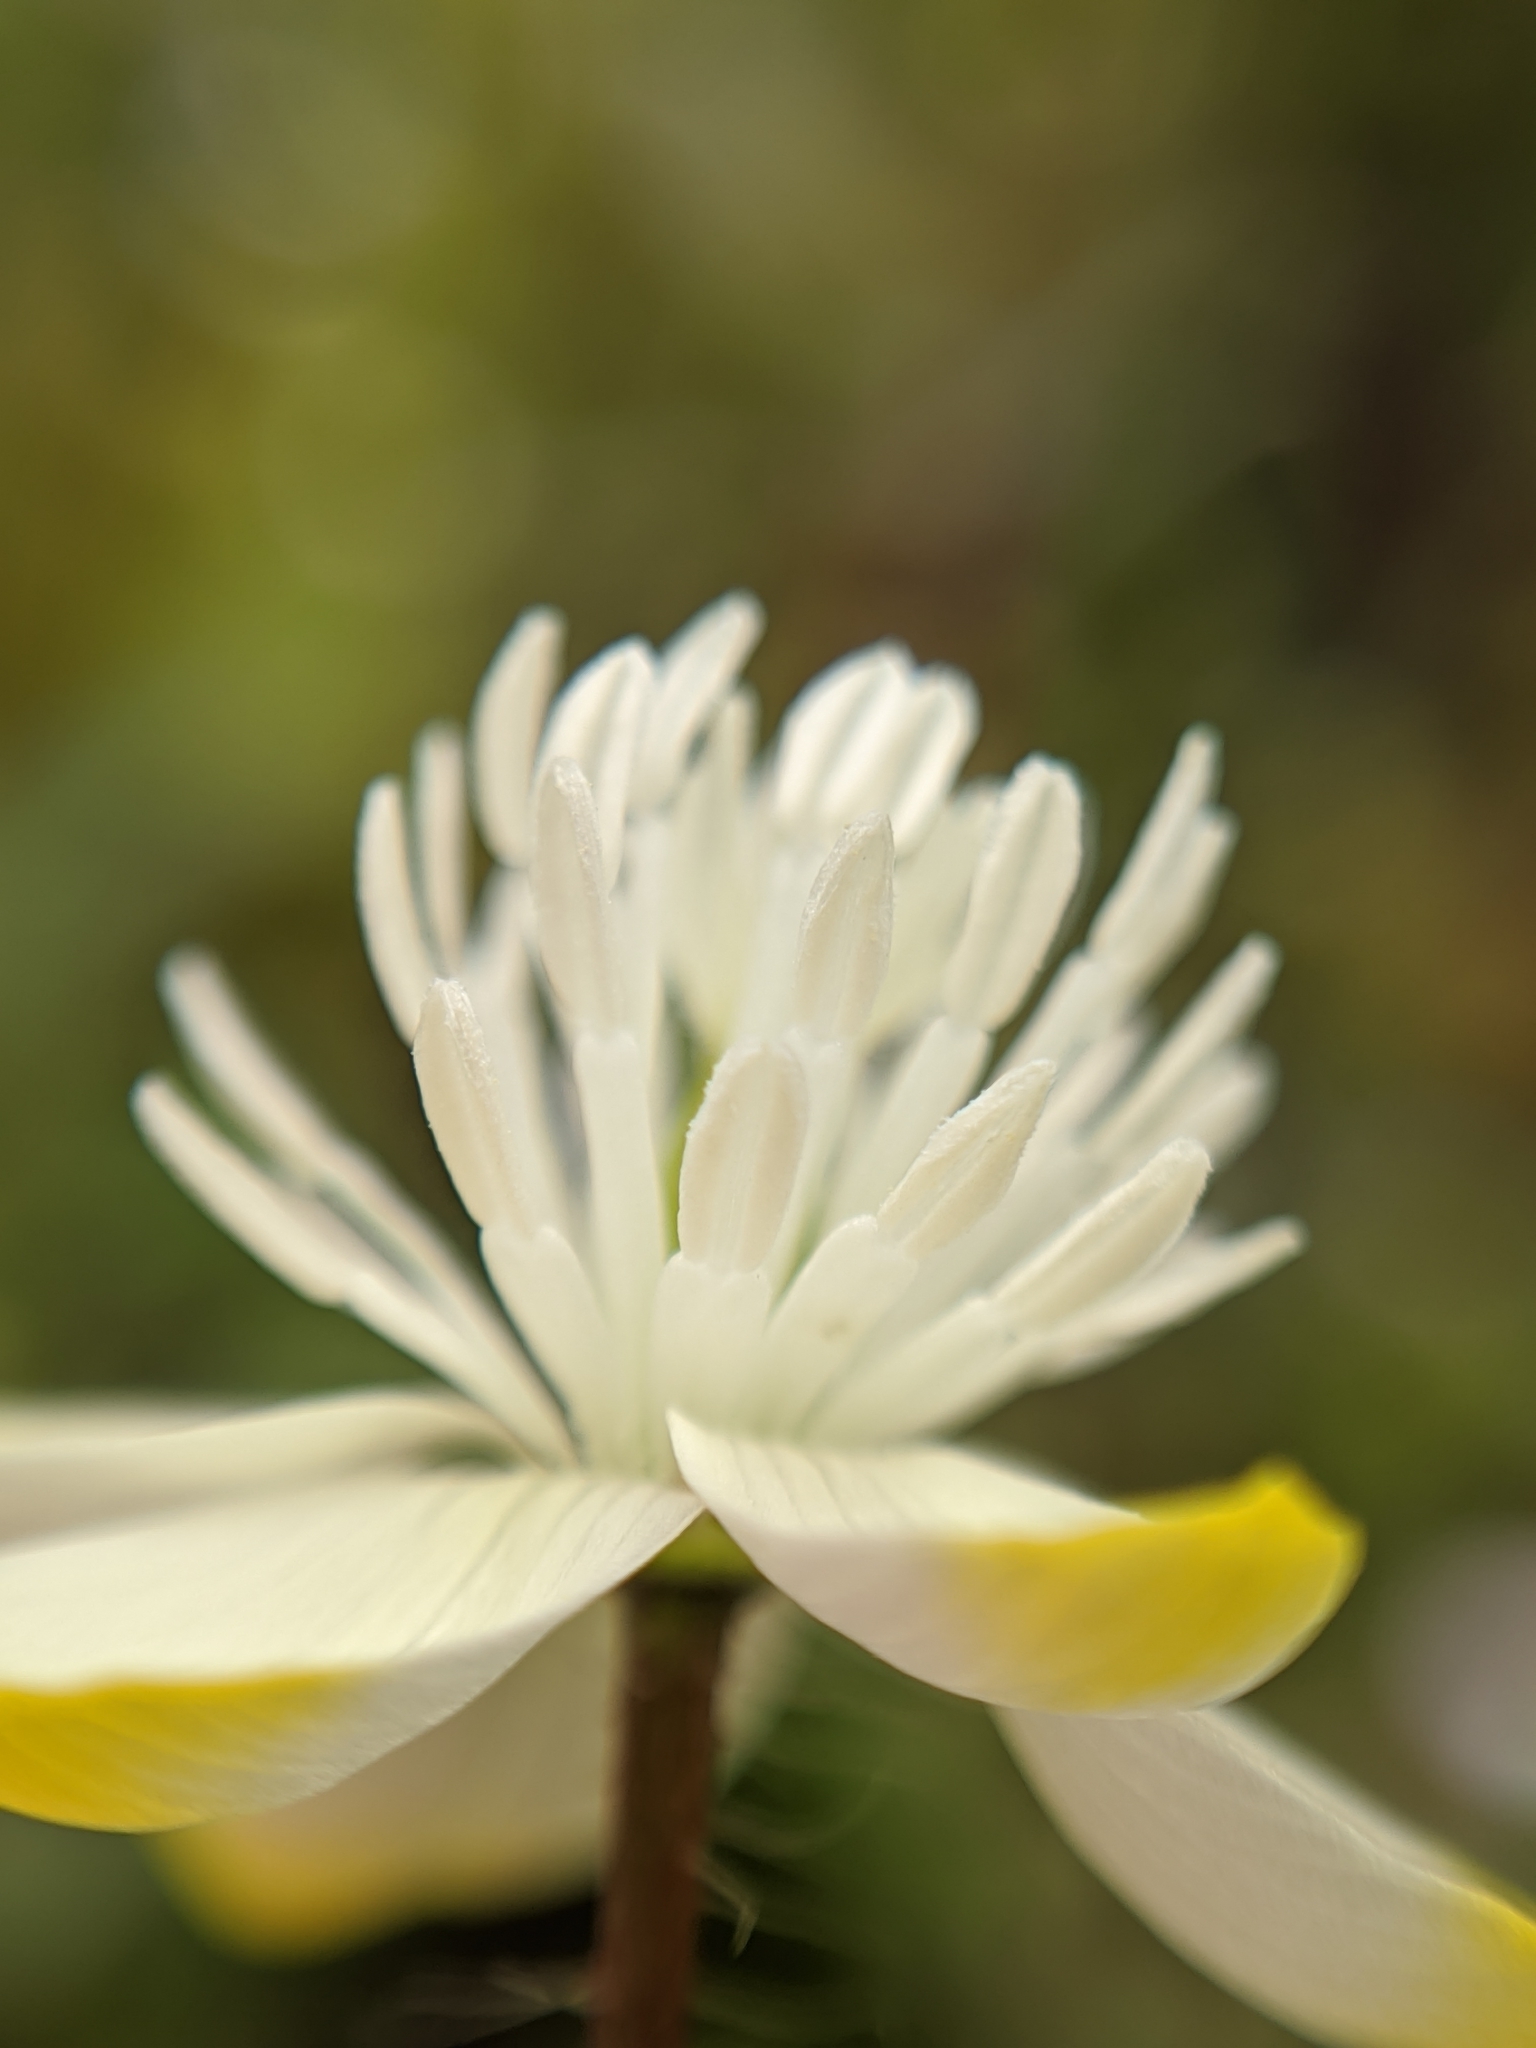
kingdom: Plantae
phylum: Tracheophyta
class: Magnoliopsida
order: Ranunculales
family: Papaveraceae
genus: Platystemon
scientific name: Platystemon californicus
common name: Cream-cups
